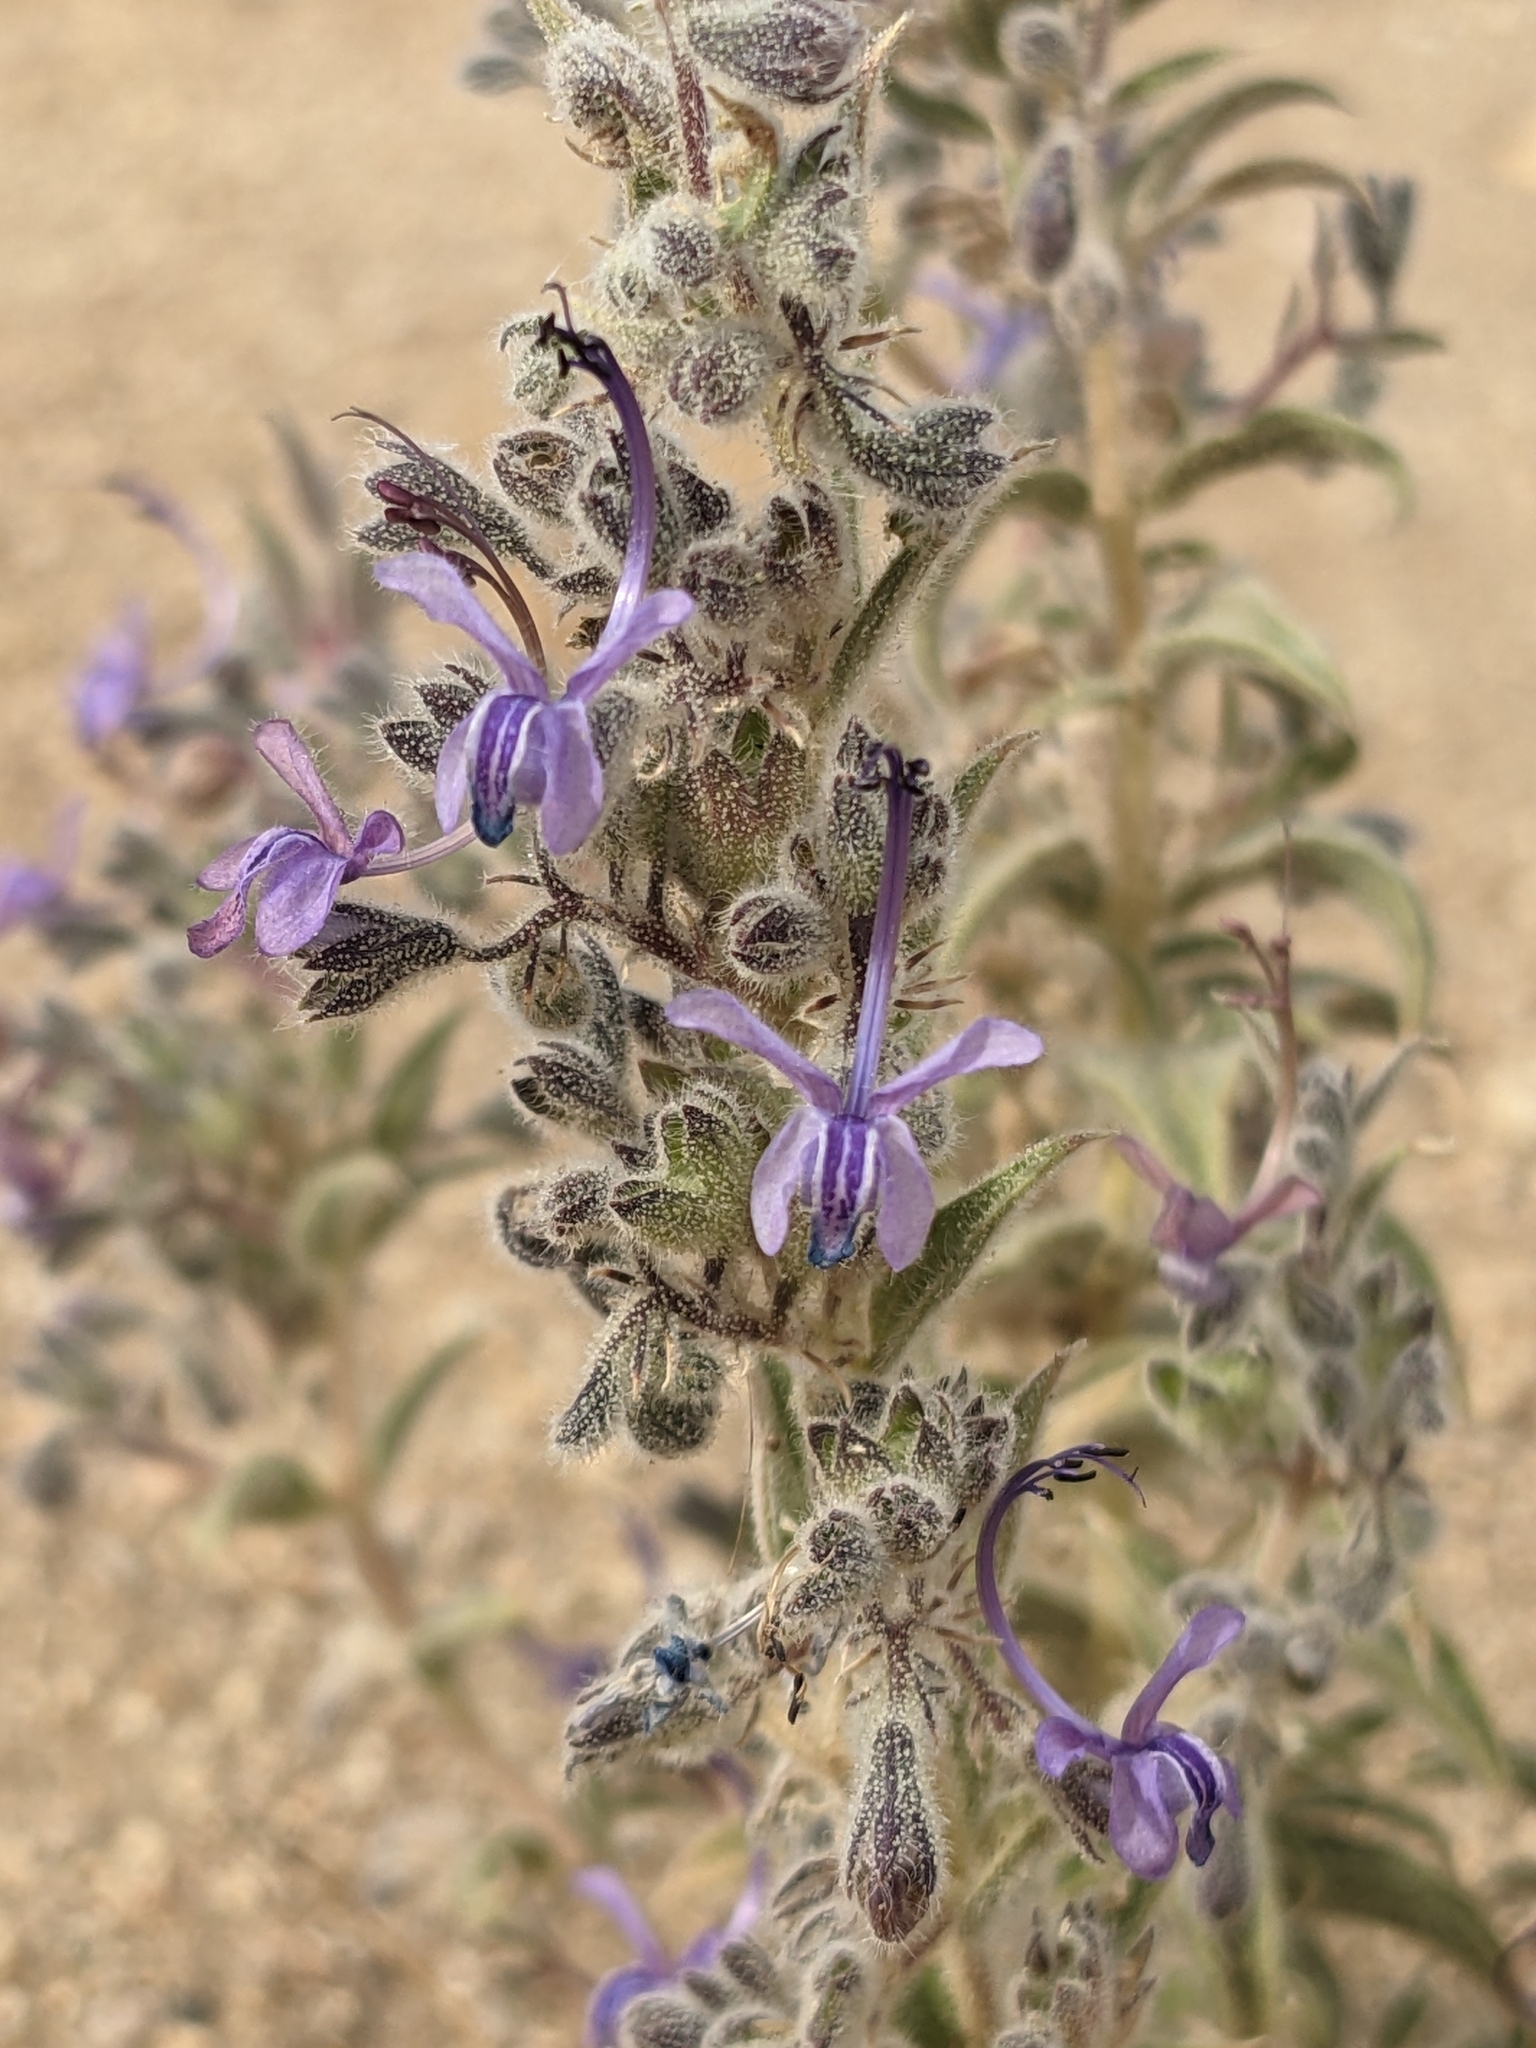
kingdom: Plantae
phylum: Tracheophyta
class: Magnoliopsida
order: Lamiales
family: Lamiaceae
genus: Trichostema
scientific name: Trichostema lanceolatum
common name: Vinegar-weed
